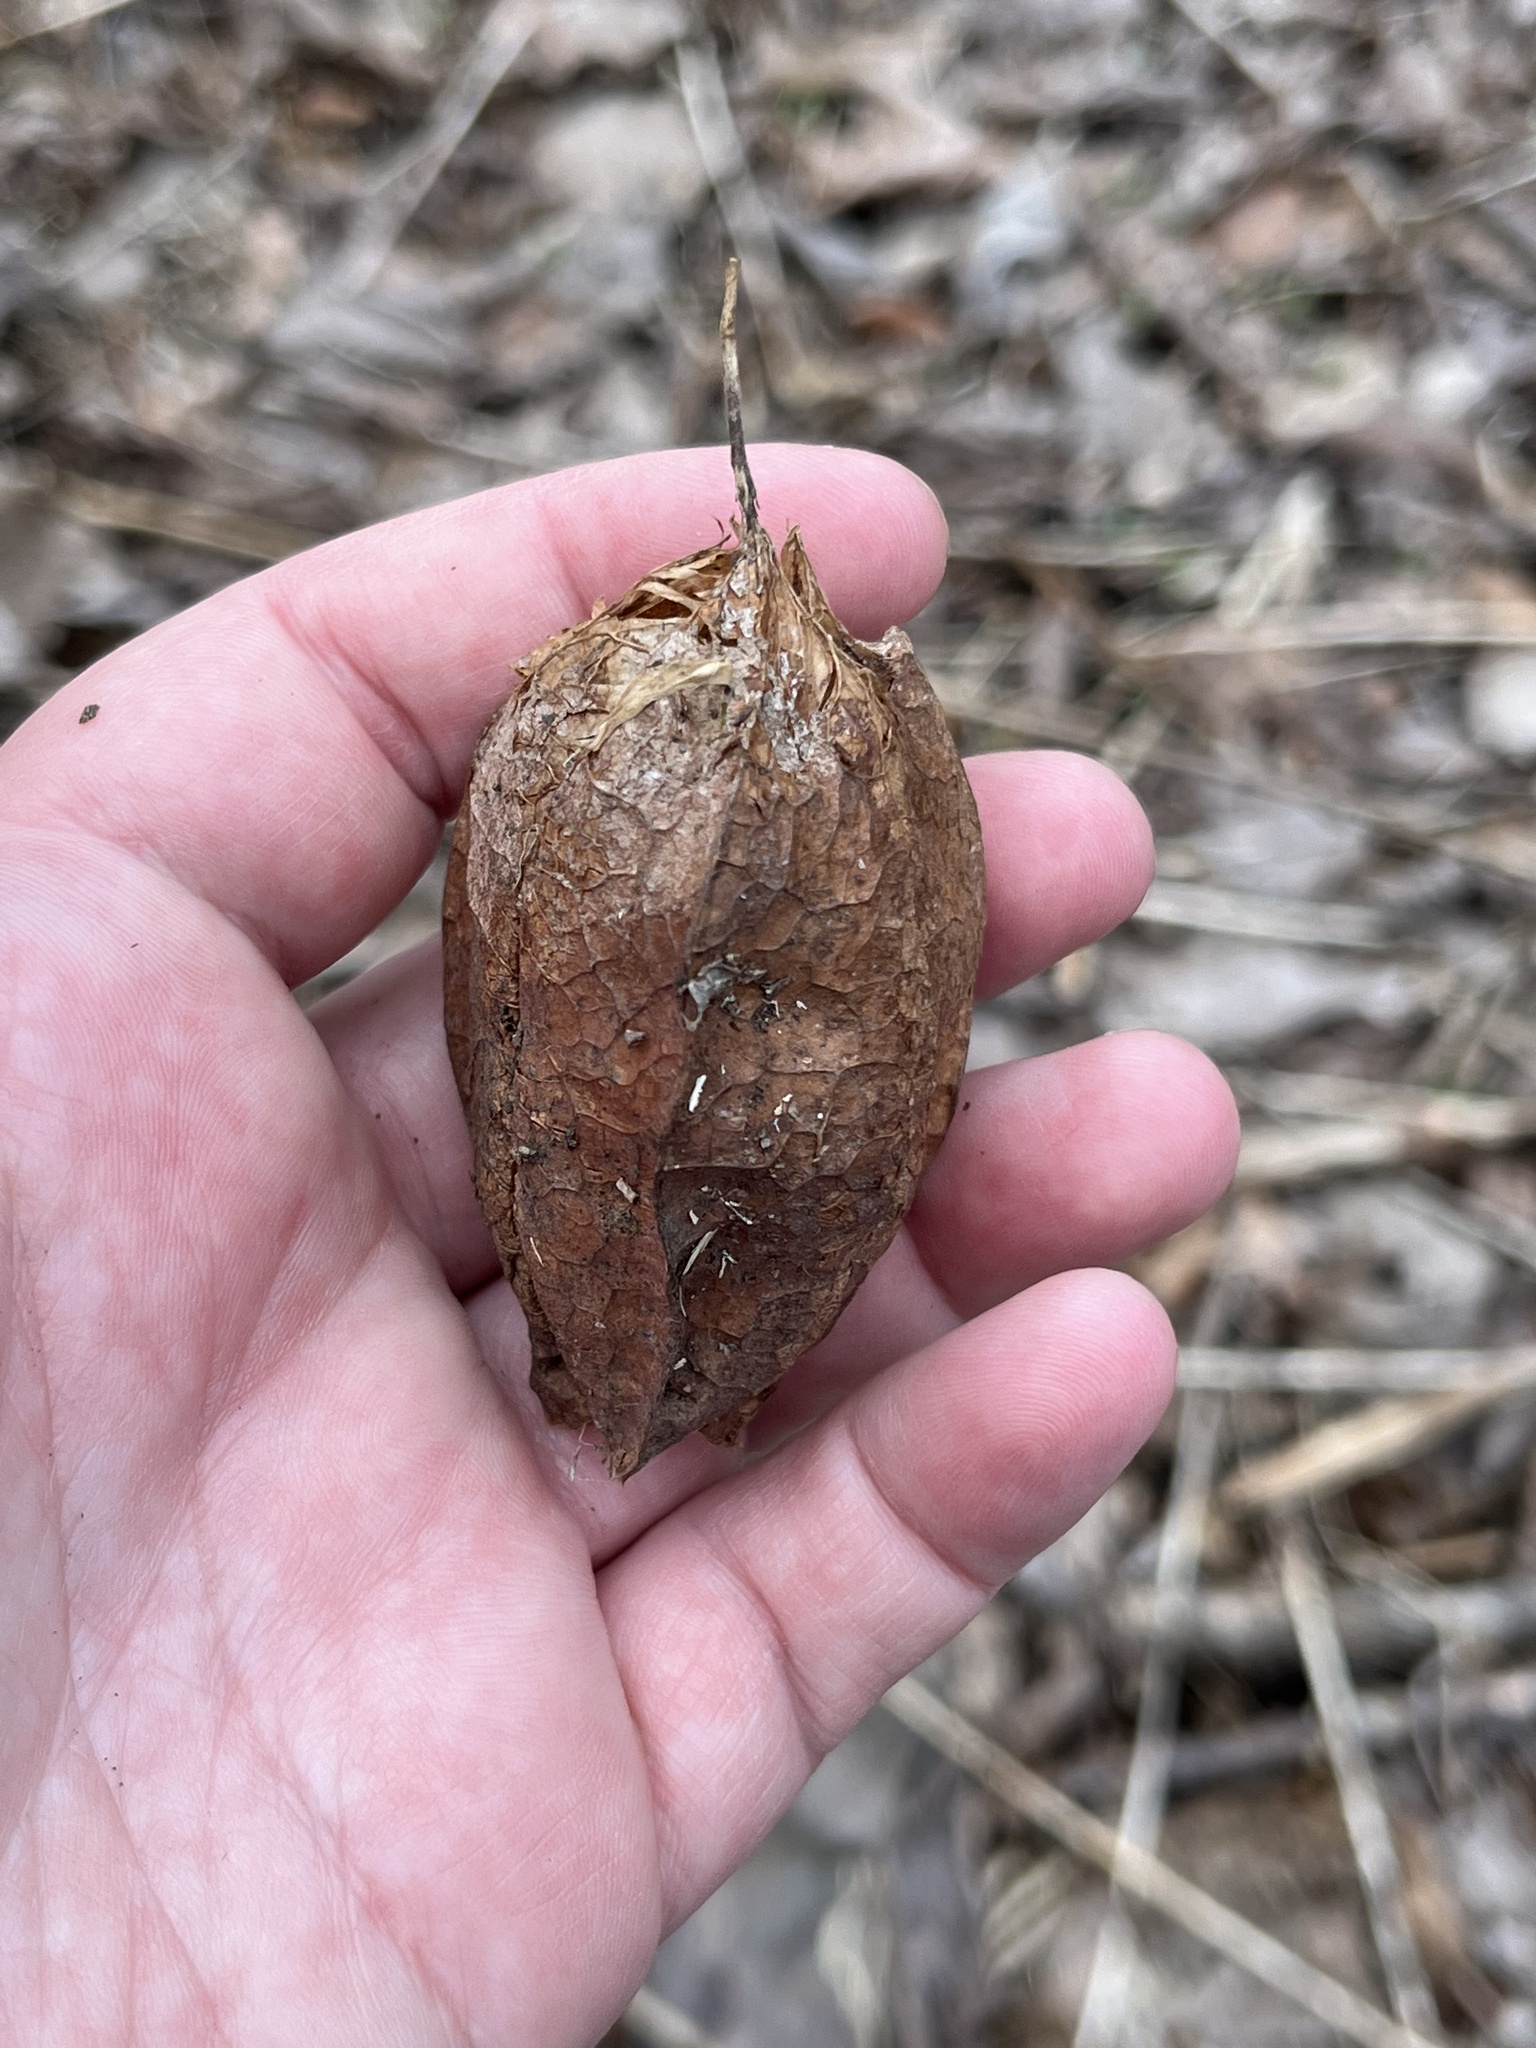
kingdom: Plantae
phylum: Tracheophyta
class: Magnoliopsida
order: Crossosomatales
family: Staphyleaceae
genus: Staphylea
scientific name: Staphylea trifolia
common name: American bladdernut
